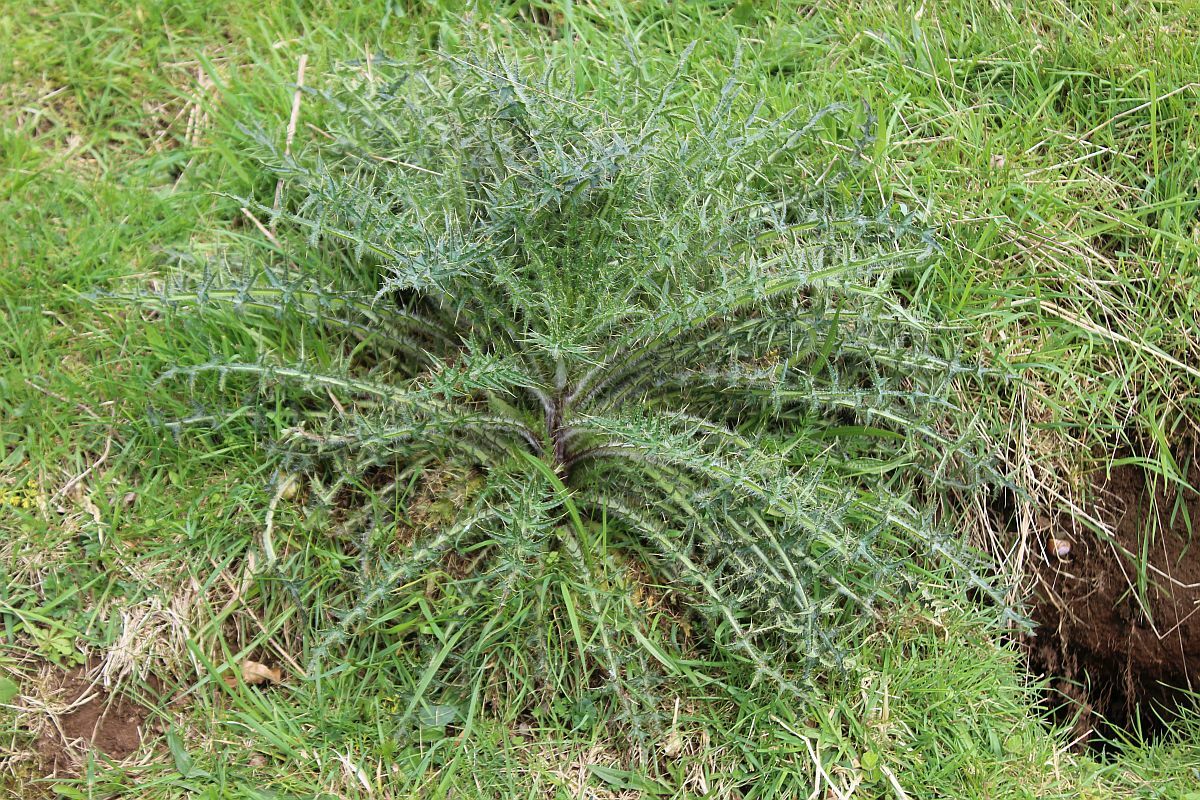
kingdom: Plantae
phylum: Tracheophyta
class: Magnoliopsida
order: Asterales
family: Asteraceae
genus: Cirsium
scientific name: Cirsium palustre
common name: Marsh thistle
